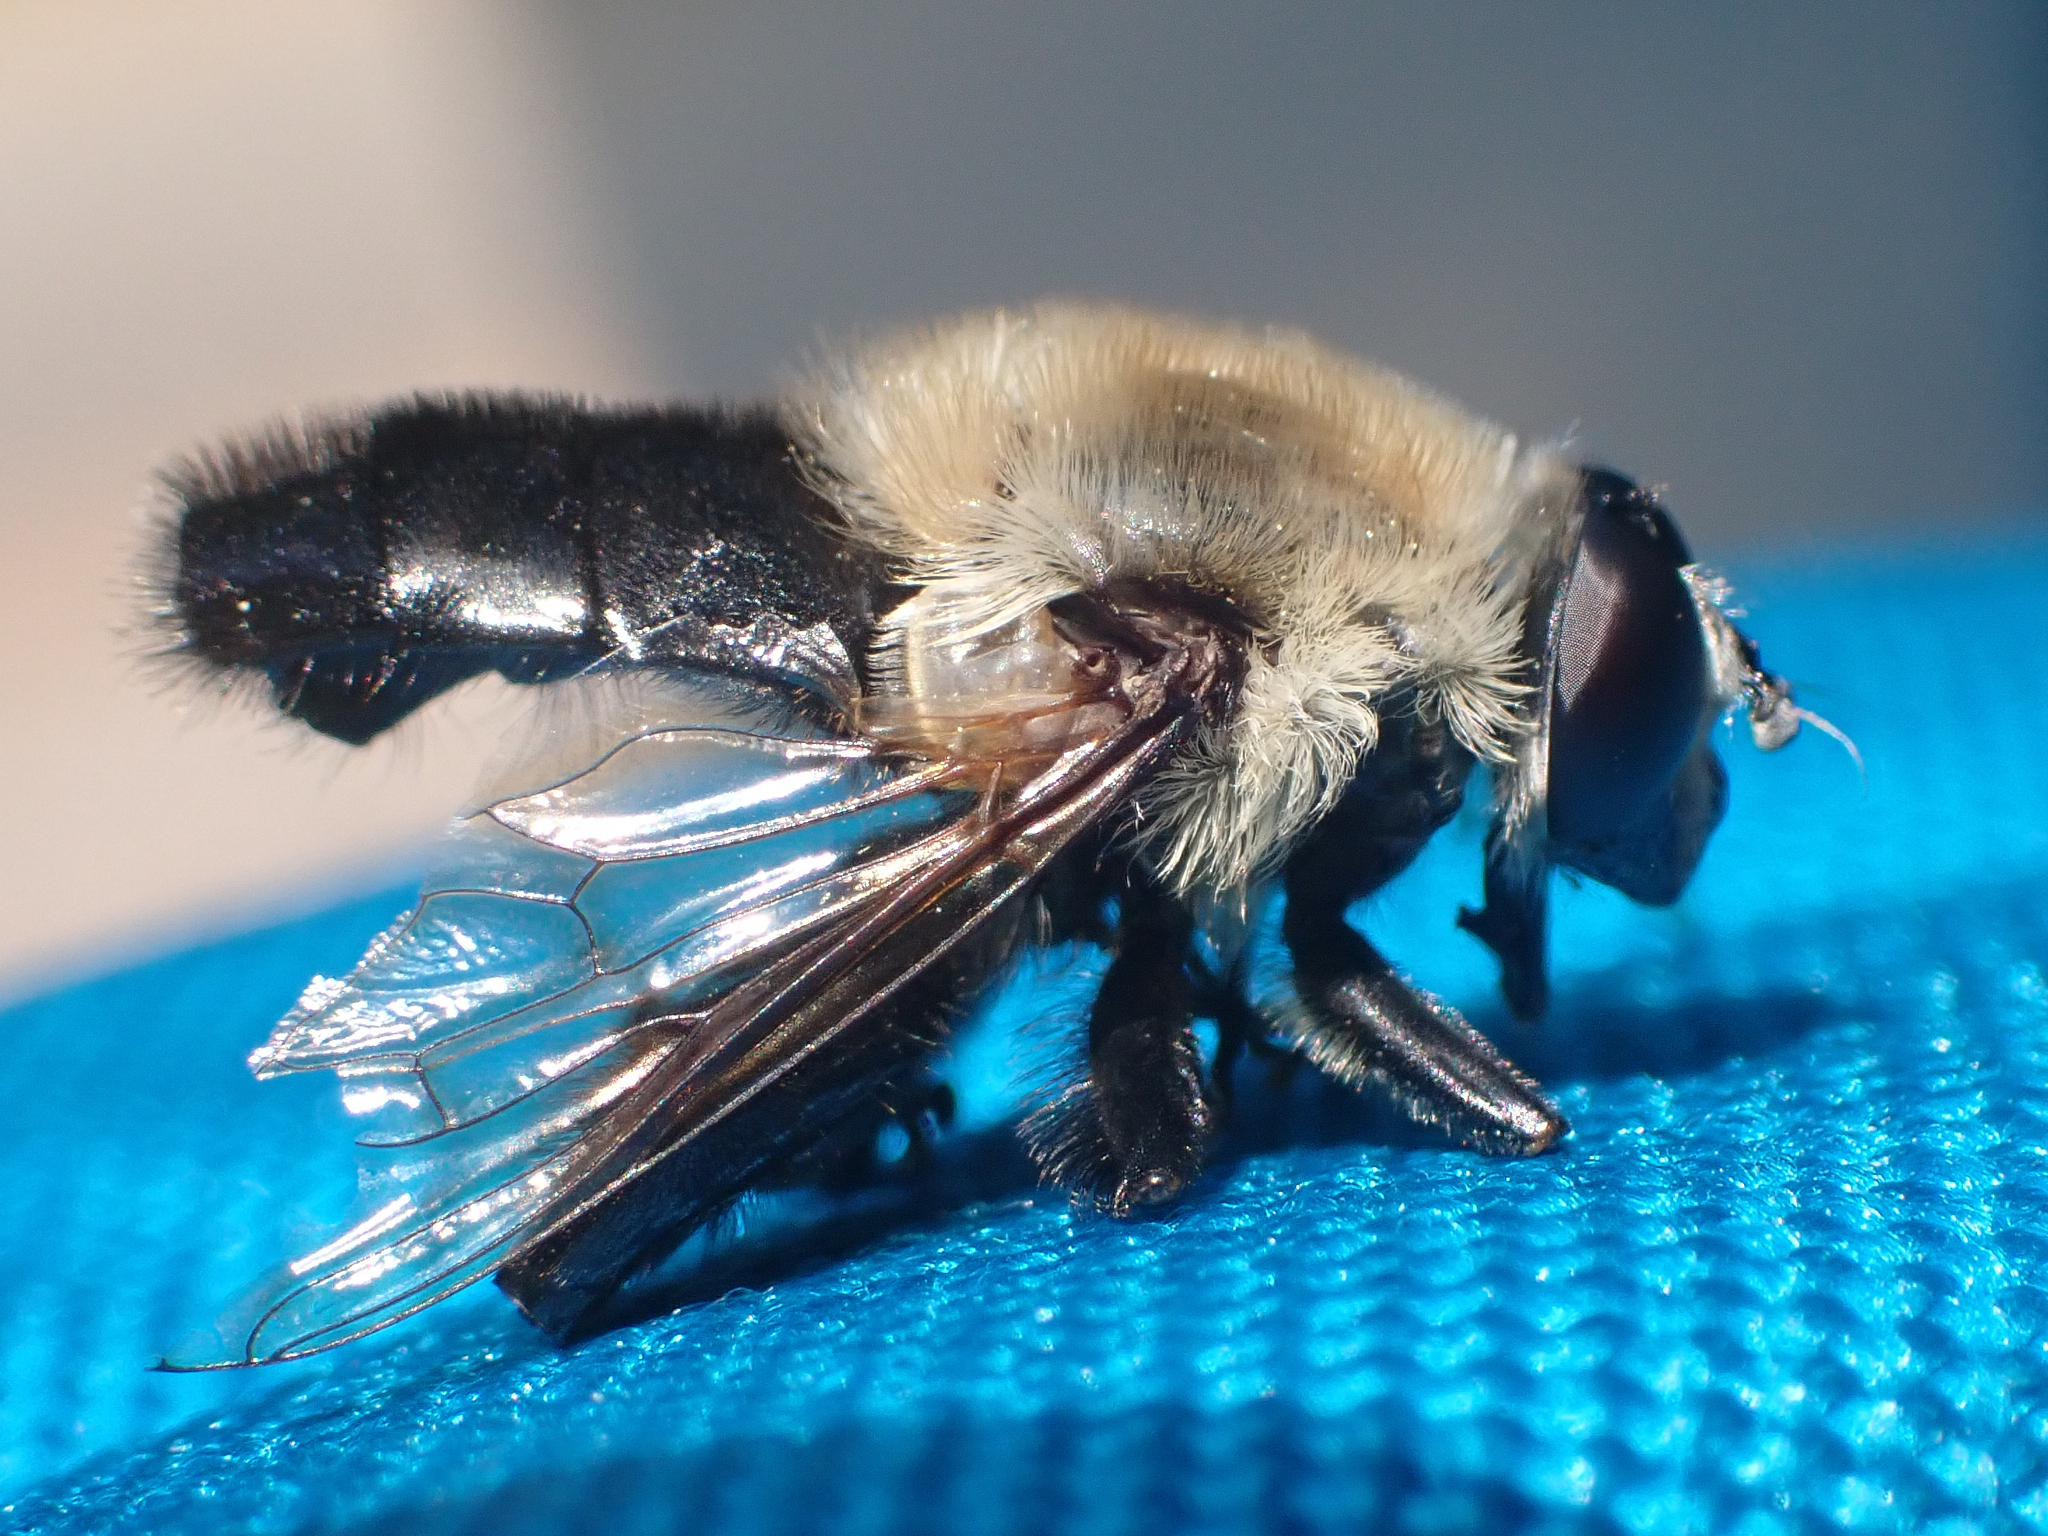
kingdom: Animalia
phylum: Arthropoda
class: Insecta
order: Diptera
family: Syrphidae
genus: Imatisma
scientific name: Imatisma bautias
